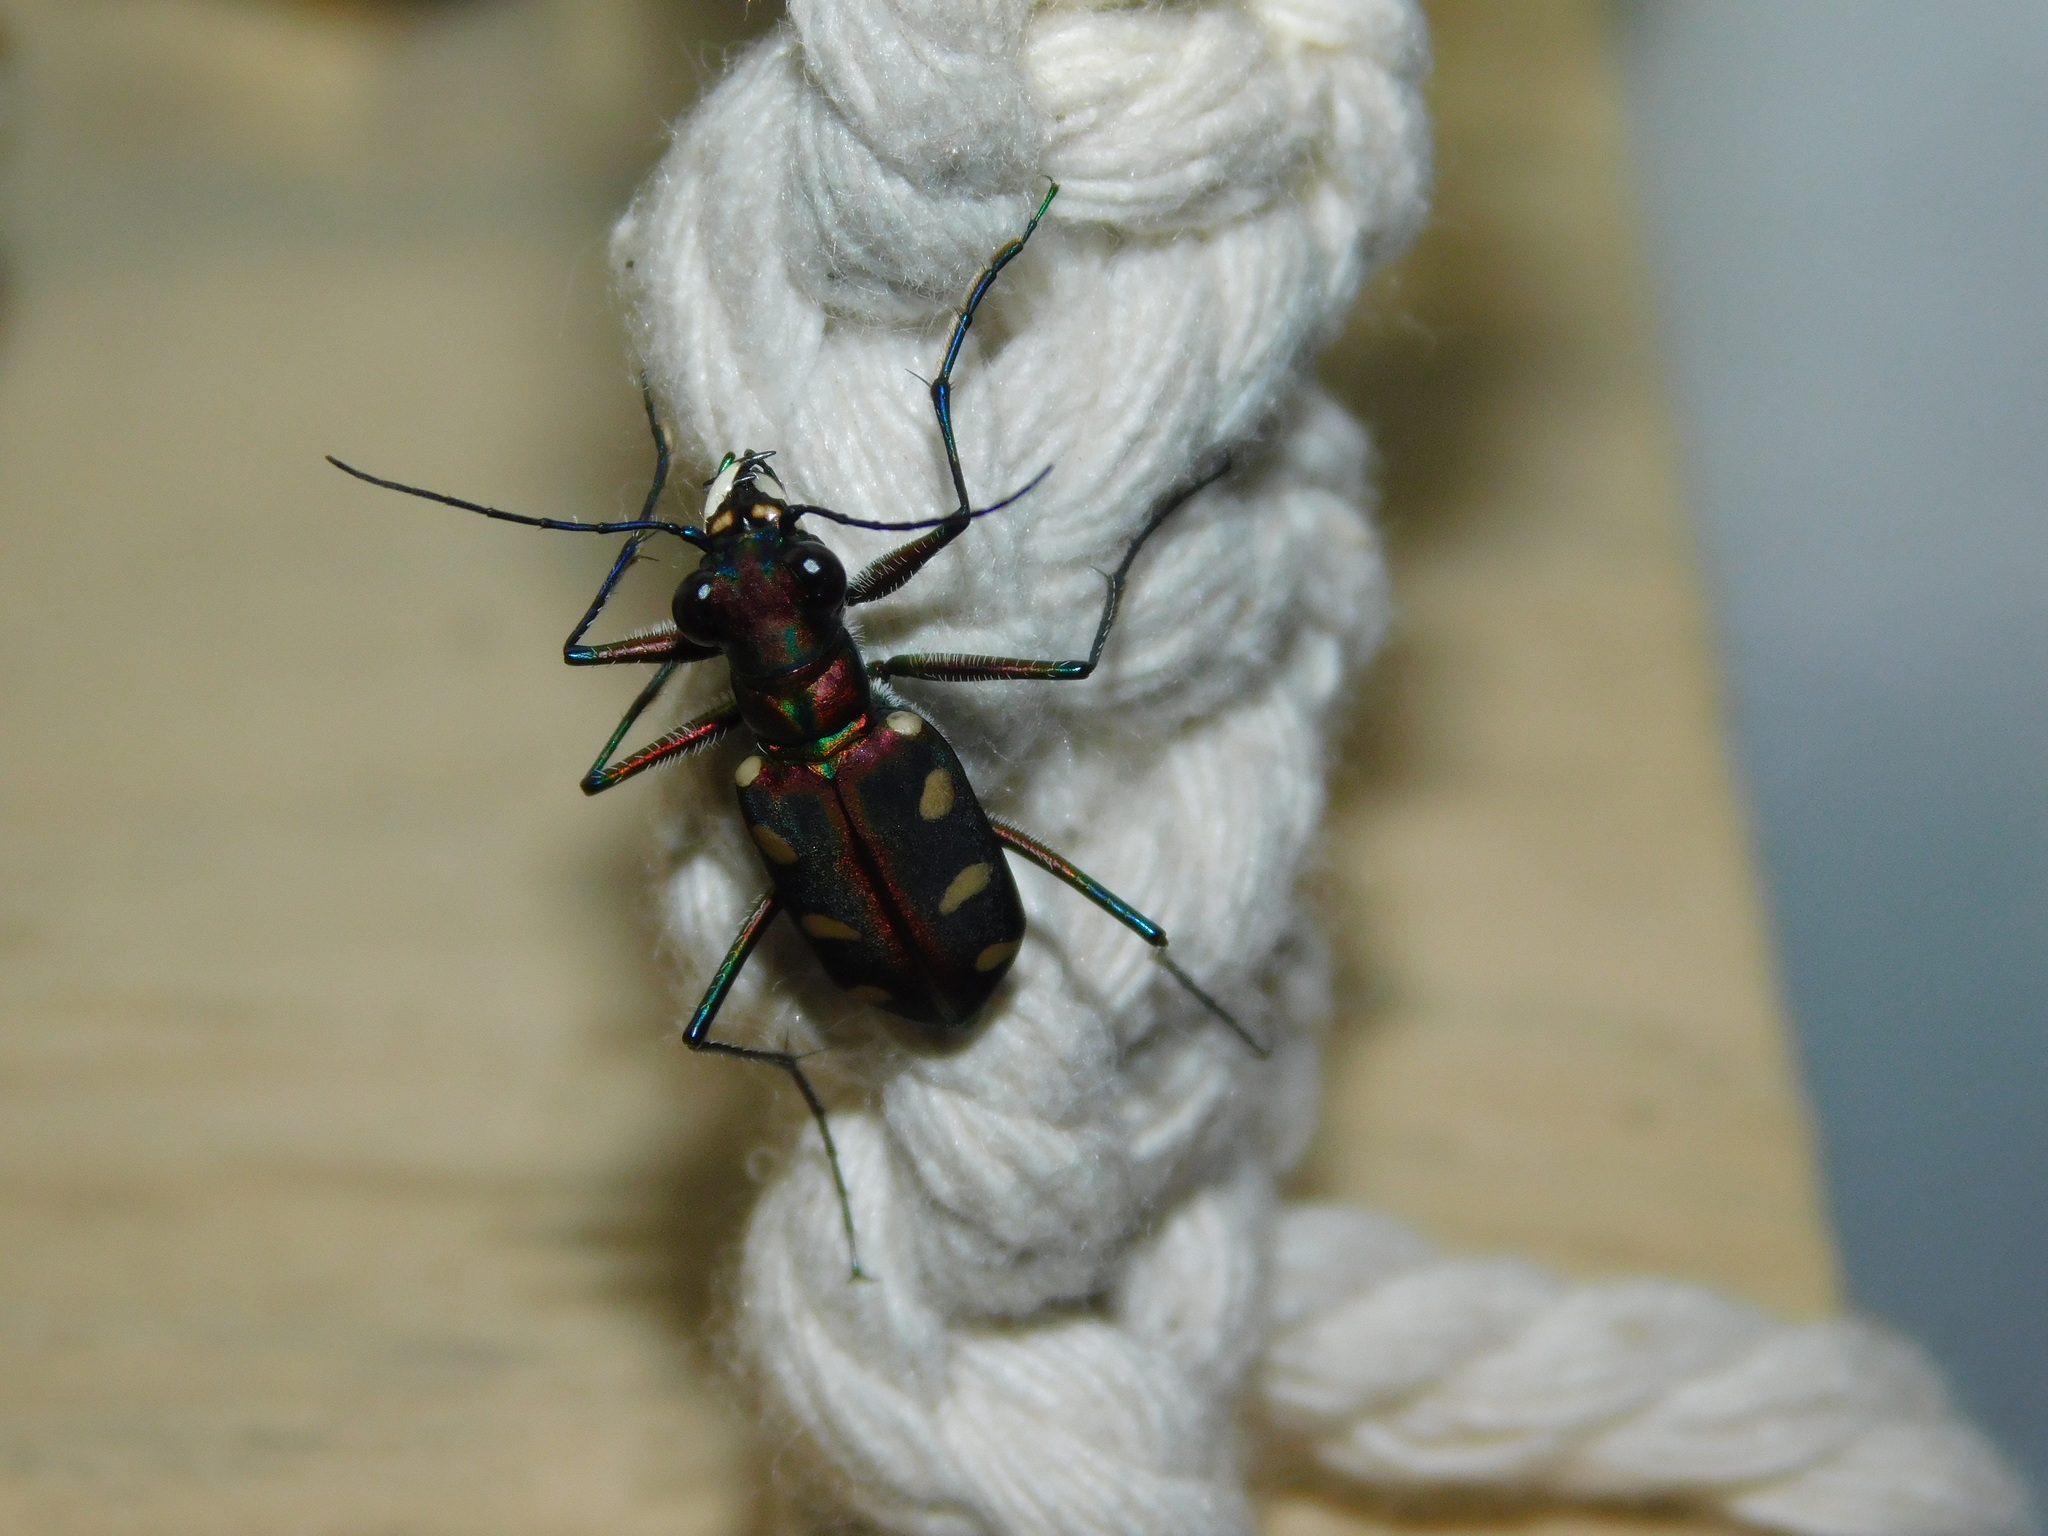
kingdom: Animalia
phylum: Arthropoda
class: Insecta
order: Coleoptera
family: Carabidae
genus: Cicindela
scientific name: Cicindela aurulenta
